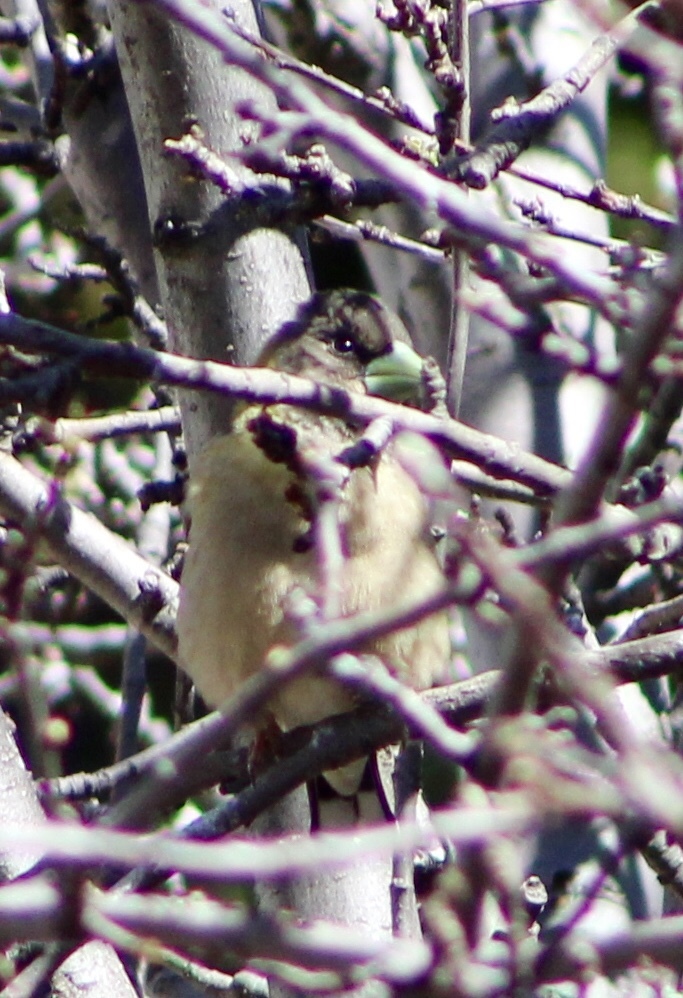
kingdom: Animalia
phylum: Chordata
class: Aves
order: Passeriformes
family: Fringillidae
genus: Hesperiphona
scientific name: Hesperiphona vespertina
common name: Evening grosbeak
